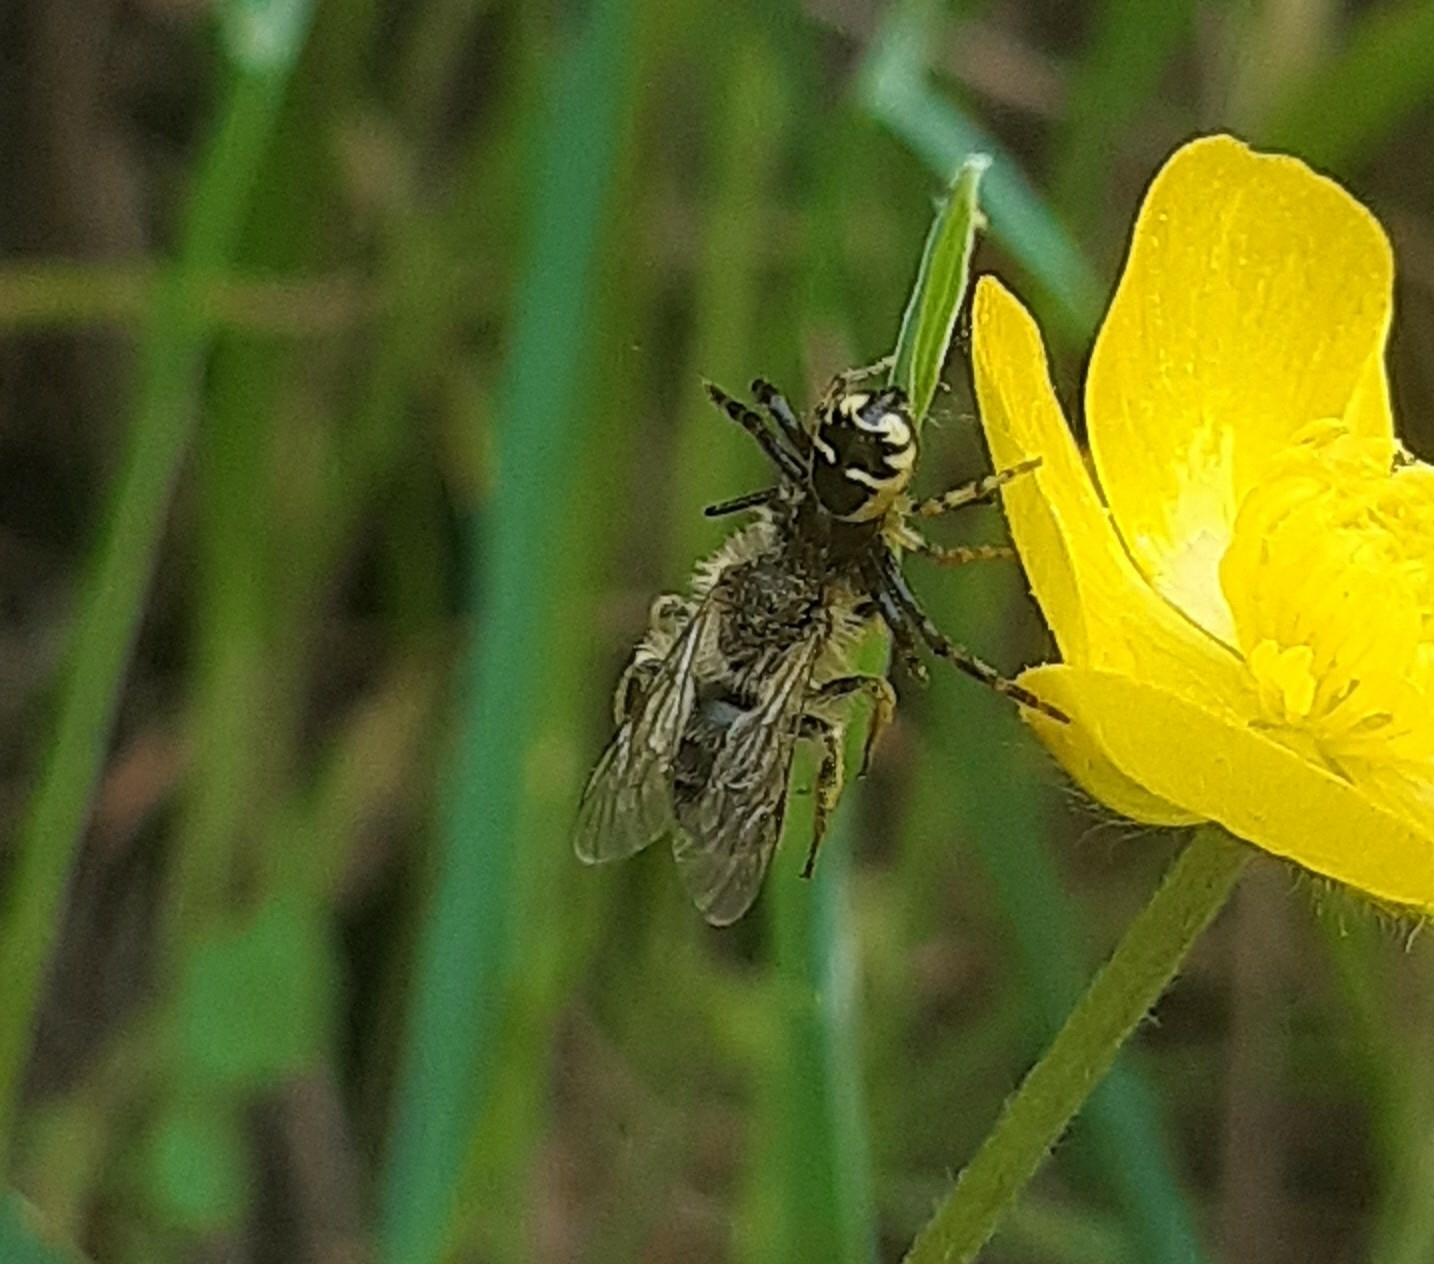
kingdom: Animalia
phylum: Arthropoda
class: Arachnida
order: Araneae
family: Thomisidae
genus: Synema
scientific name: Synema globosum
